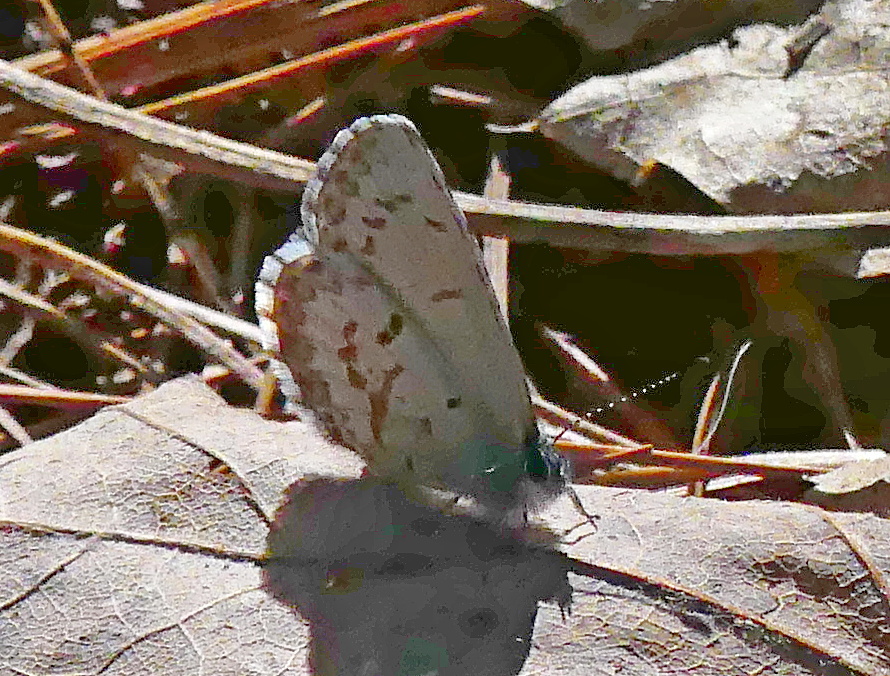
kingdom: Animalia
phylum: Arthropoda
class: Insecta
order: Lepidoptera
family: Lycaenidae
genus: Celastrina
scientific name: Celastrina lucia
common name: Lucia azure
